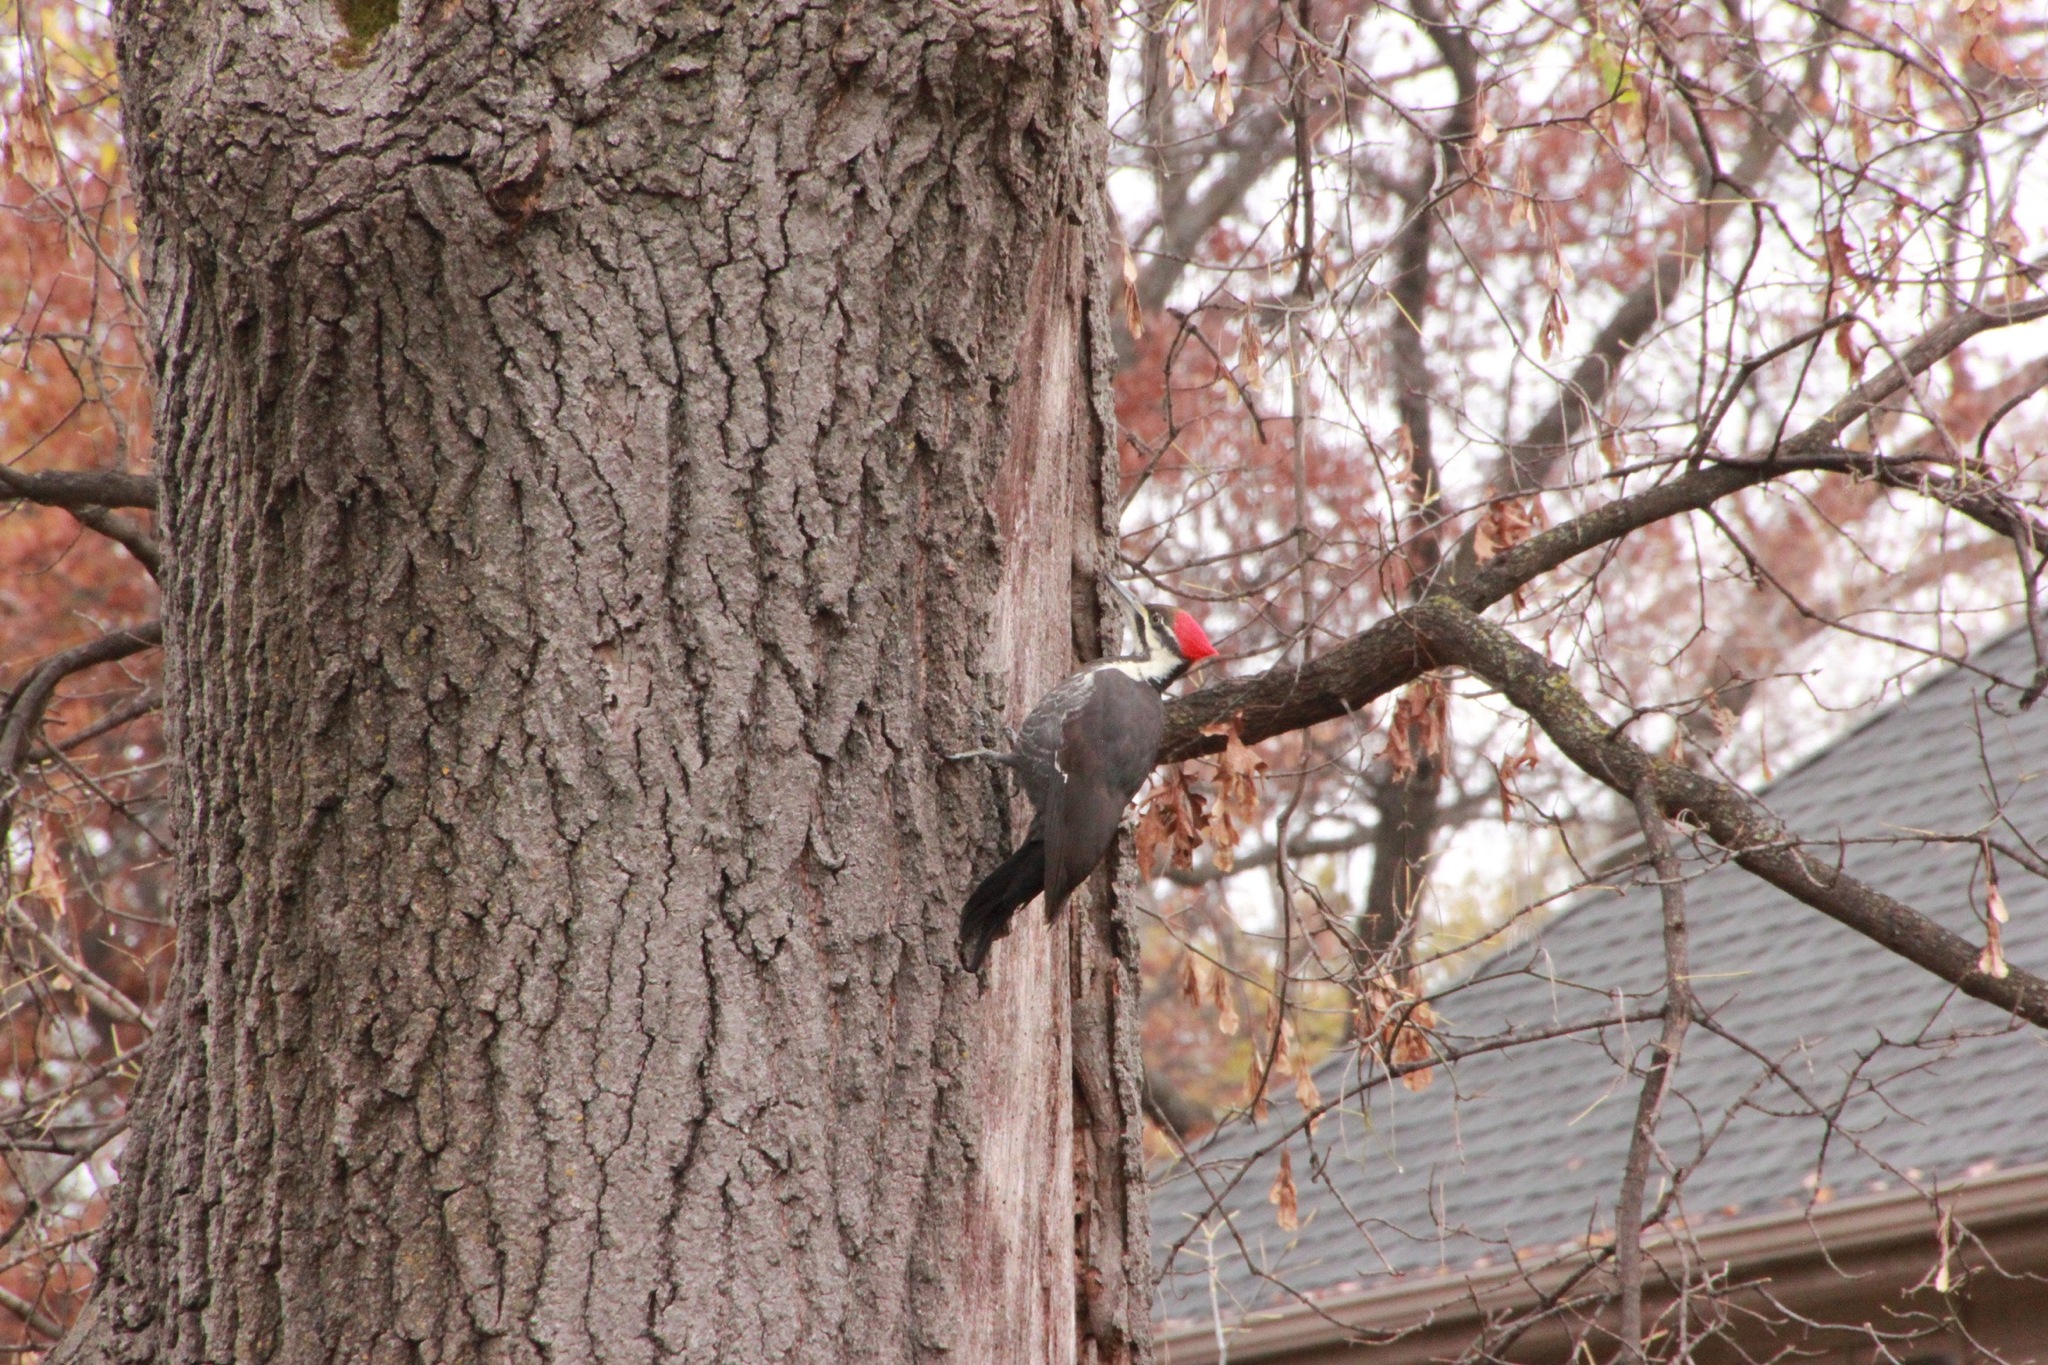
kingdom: Animalia
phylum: Chordata
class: Aves
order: Piciformes
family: Picidae
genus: Dryocopus
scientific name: Dryocopus pileatus
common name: Pileated woodpecker
